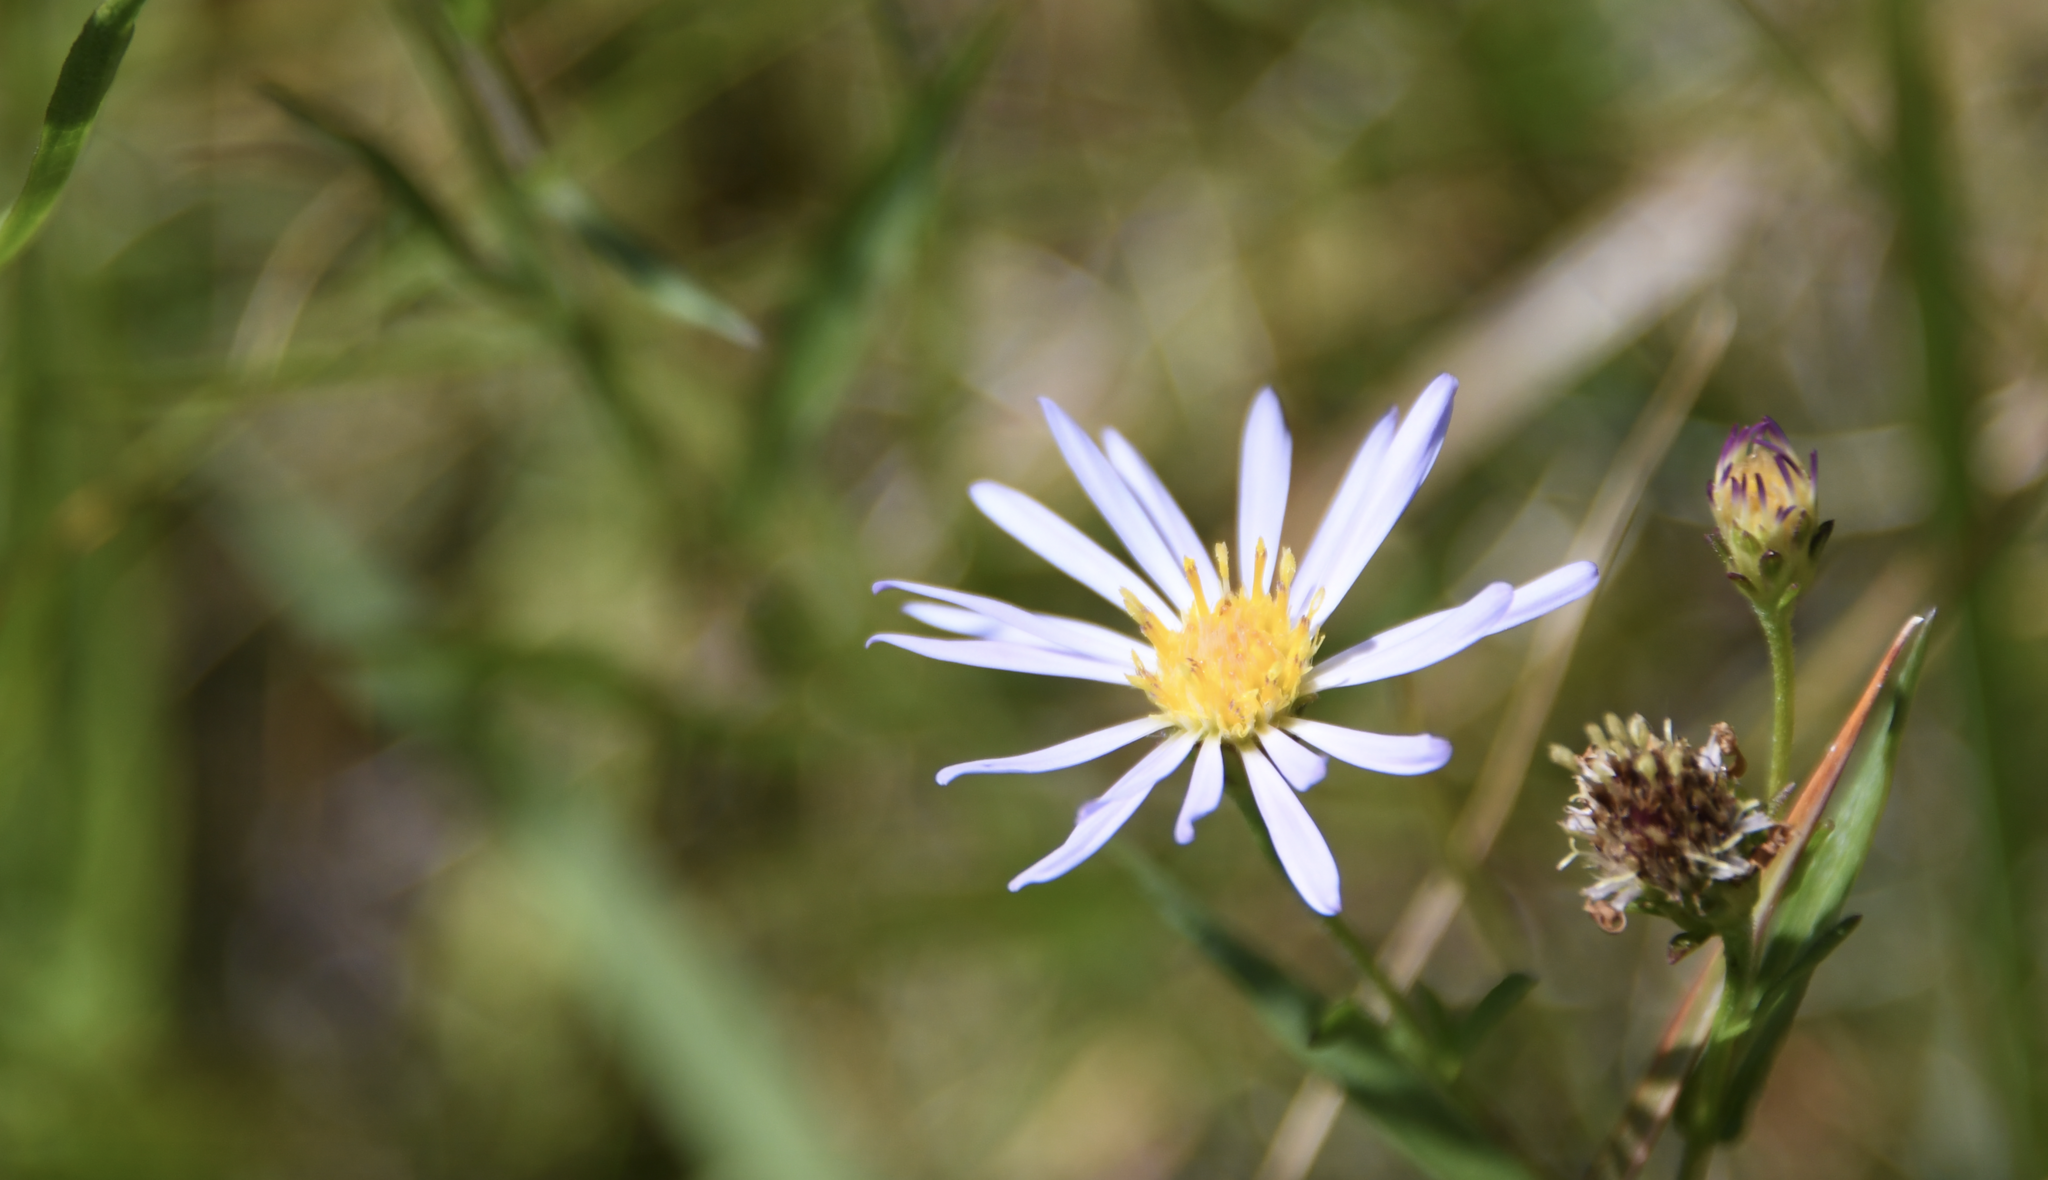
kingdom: Plantae
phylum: Tracheophyta
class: Magnoliopsida
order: Asterales
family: Asteraceae
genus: Symphyotrichum
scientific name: Symphyotrichum chilense
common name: Pacific aster
